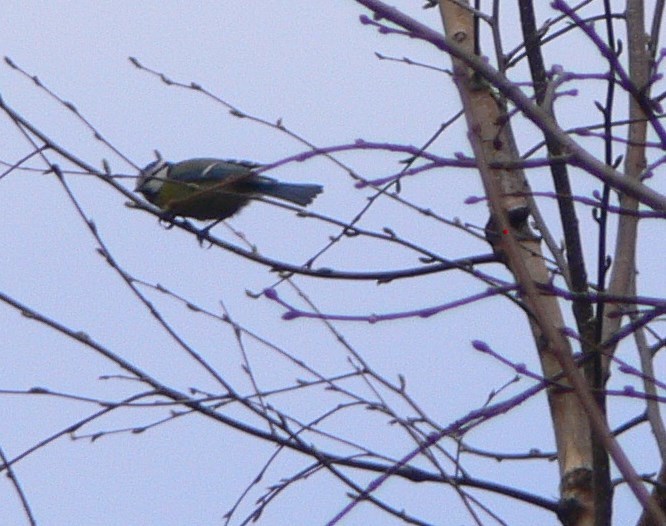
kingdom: Animalia
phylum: Chordata
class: Aves
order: Passeriformes
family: Paridae
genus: Cyanistes
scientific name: Cyanistes caeruleus
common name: Eurasian blue tit
